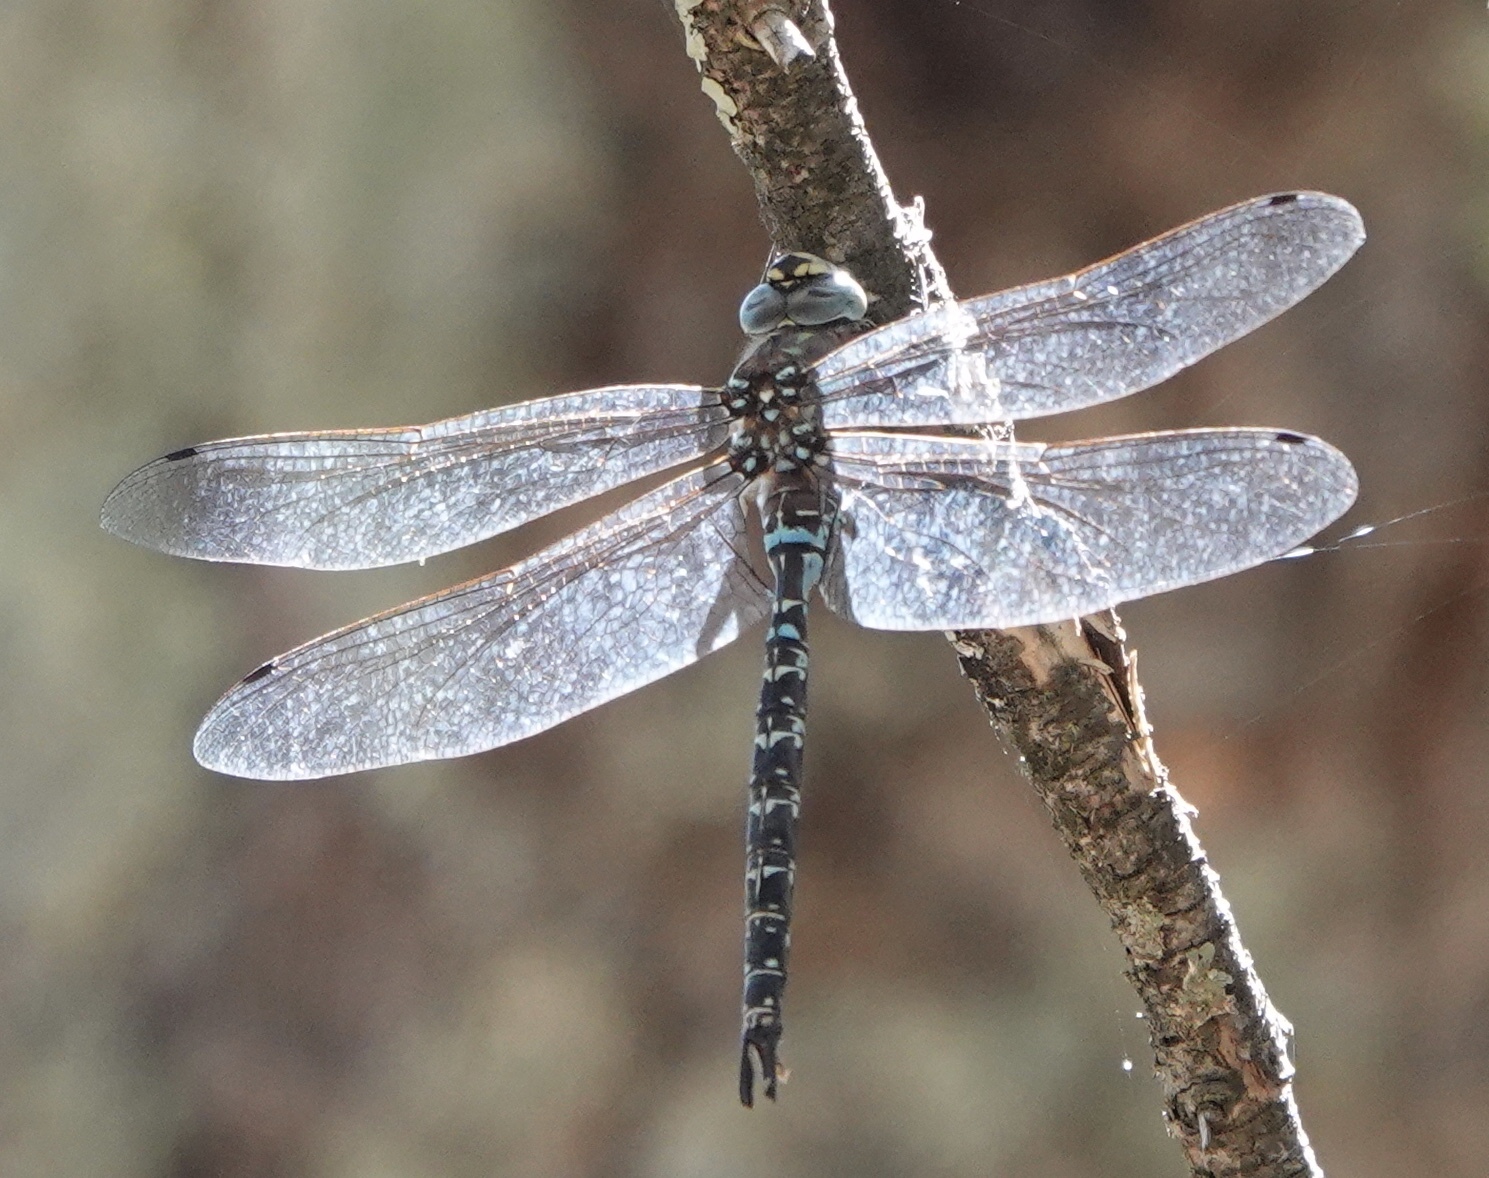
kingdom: Animalia
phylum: Arthropoda
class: Insecta
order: Odonata
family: Aeshnidae
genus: Oplonaeschna
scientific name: Oplonaeschna armata
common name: Riffle darner
